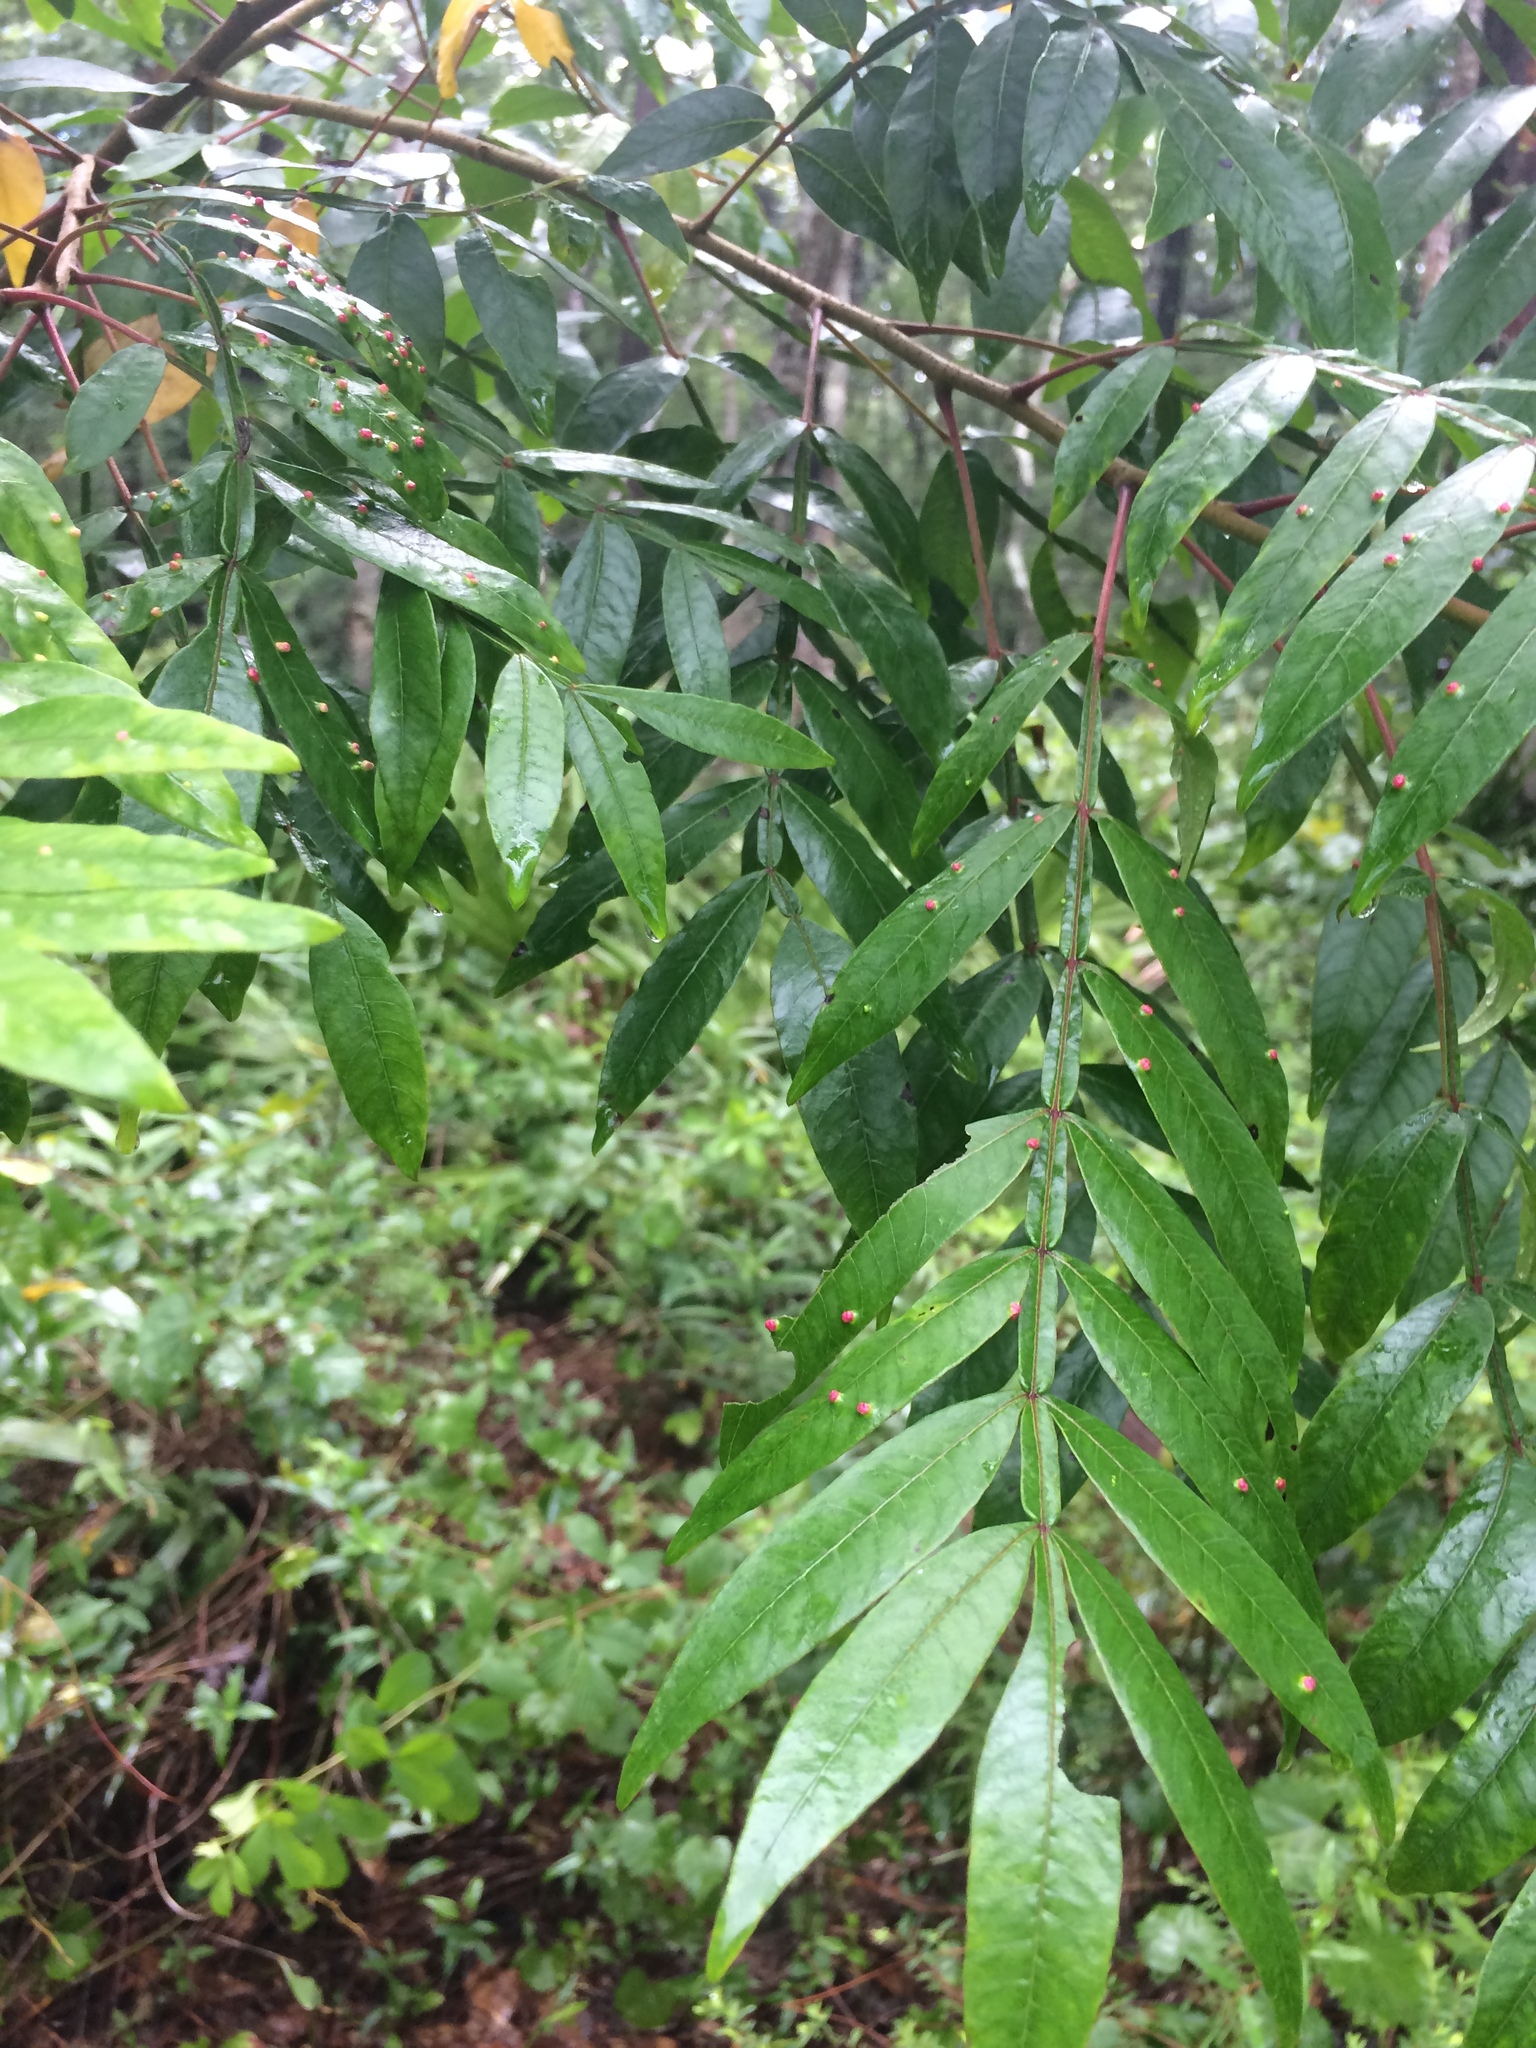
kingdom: Plantae
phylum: Tracheophyta
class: Magnoliopsida
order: Sapindales
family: Anacardiaceae
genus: Rhus
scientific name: Rhus copallina
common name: Shining sumac
